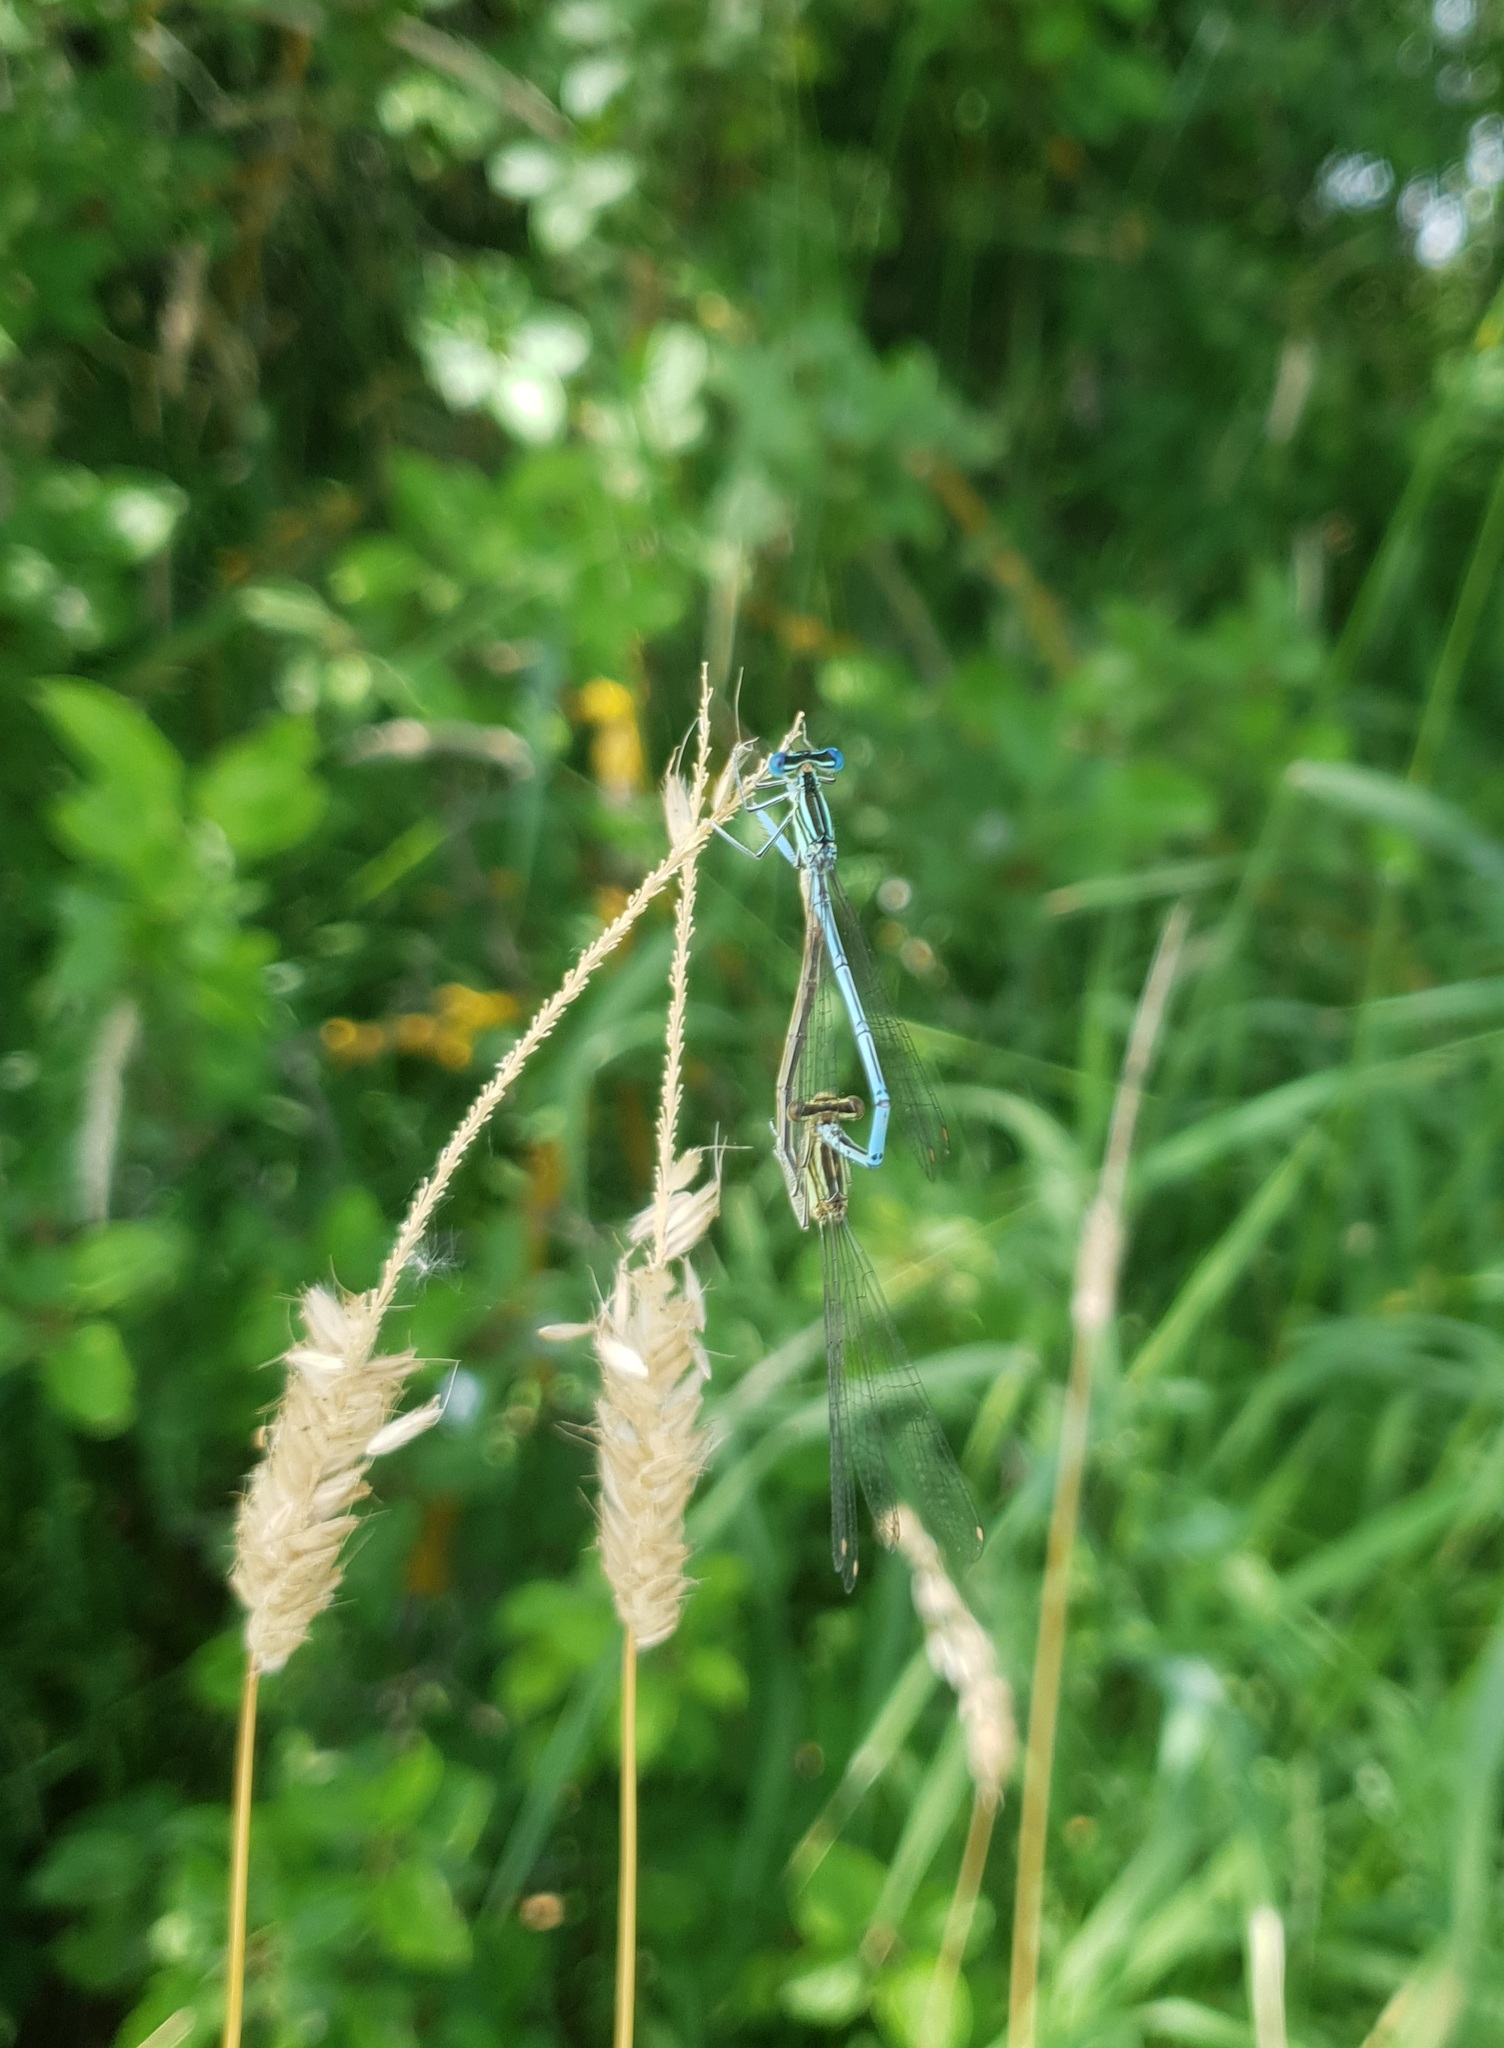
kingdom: Animalia
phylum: Arthropoda
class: Insecta
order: Odonata
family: Platycnemididae
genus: Platycnemis
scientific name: Platycnemis pennipes
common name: White-legged damselfly
